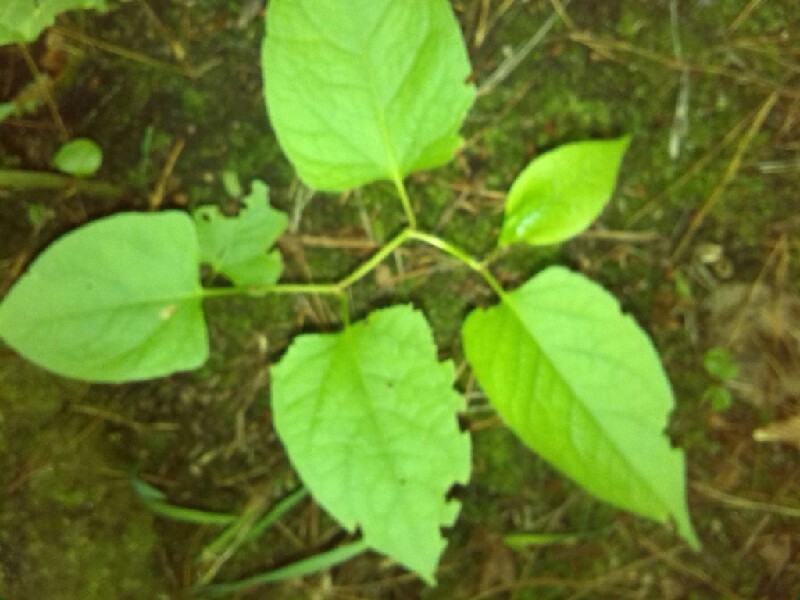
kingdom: Plantae
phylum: Tracheophyta
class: Magnoliopsida
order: Caryophyllales
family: Polygonaceae
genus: Reynoutria
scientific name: Reynoutria japonica
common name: Japanese knotweed
